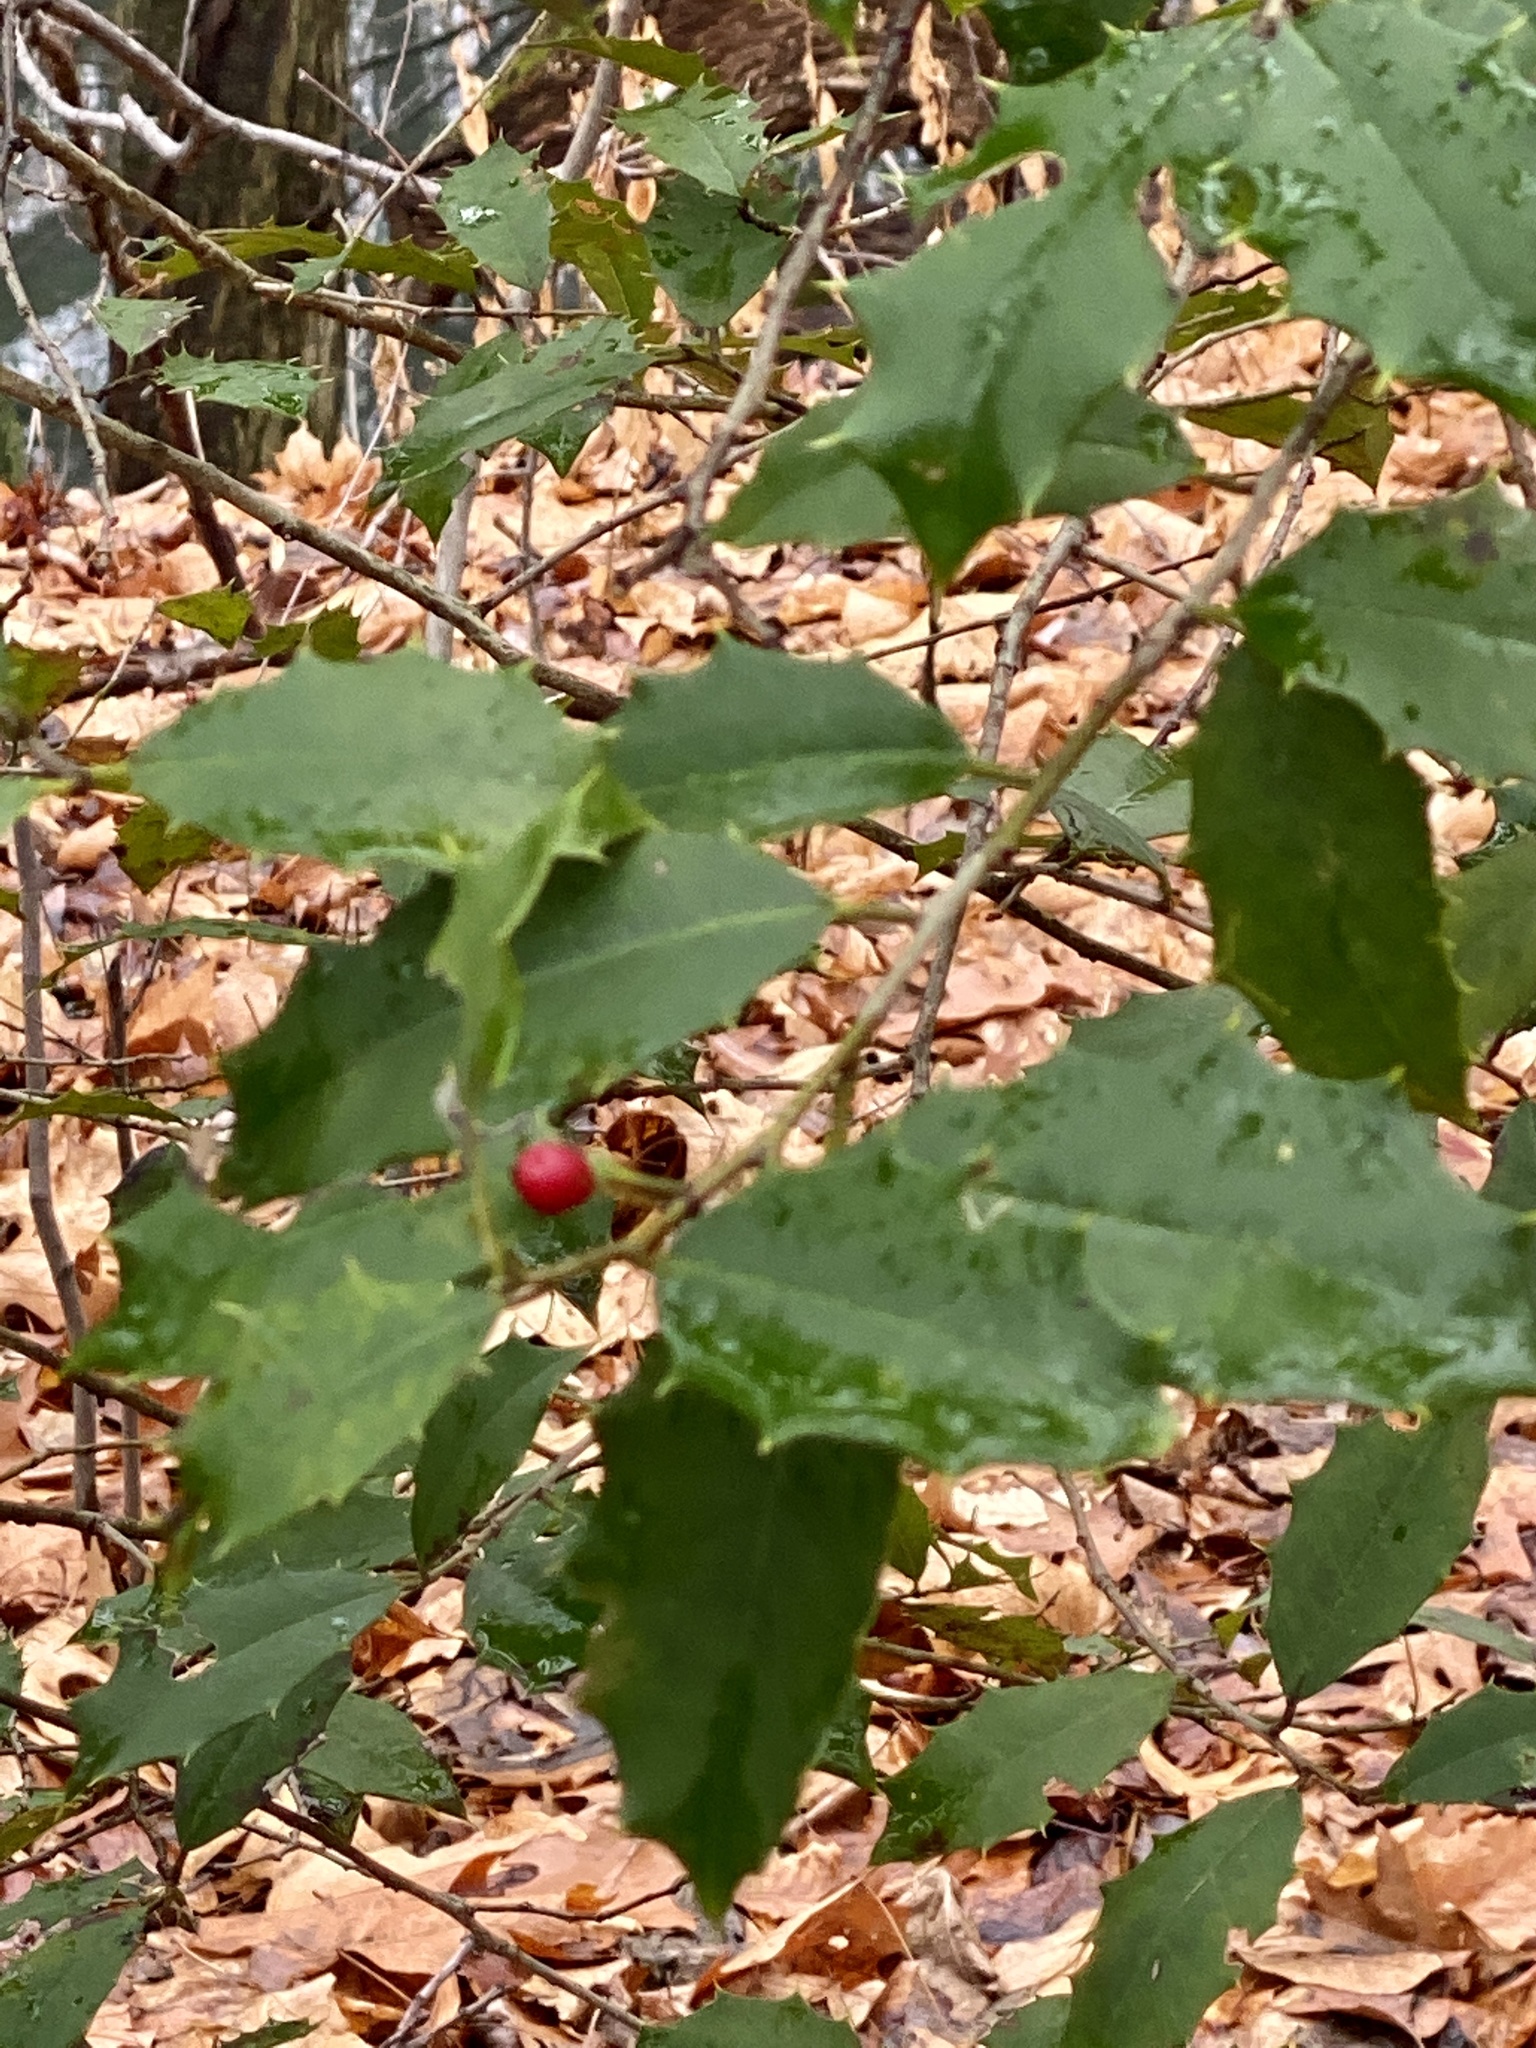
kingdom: Plantae
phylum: Tracheophyta
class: Magnoliopsida
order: Aquifoliales
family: Aquifoliaceae
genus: Ilex
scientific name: Ilex opaca
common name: American holly
